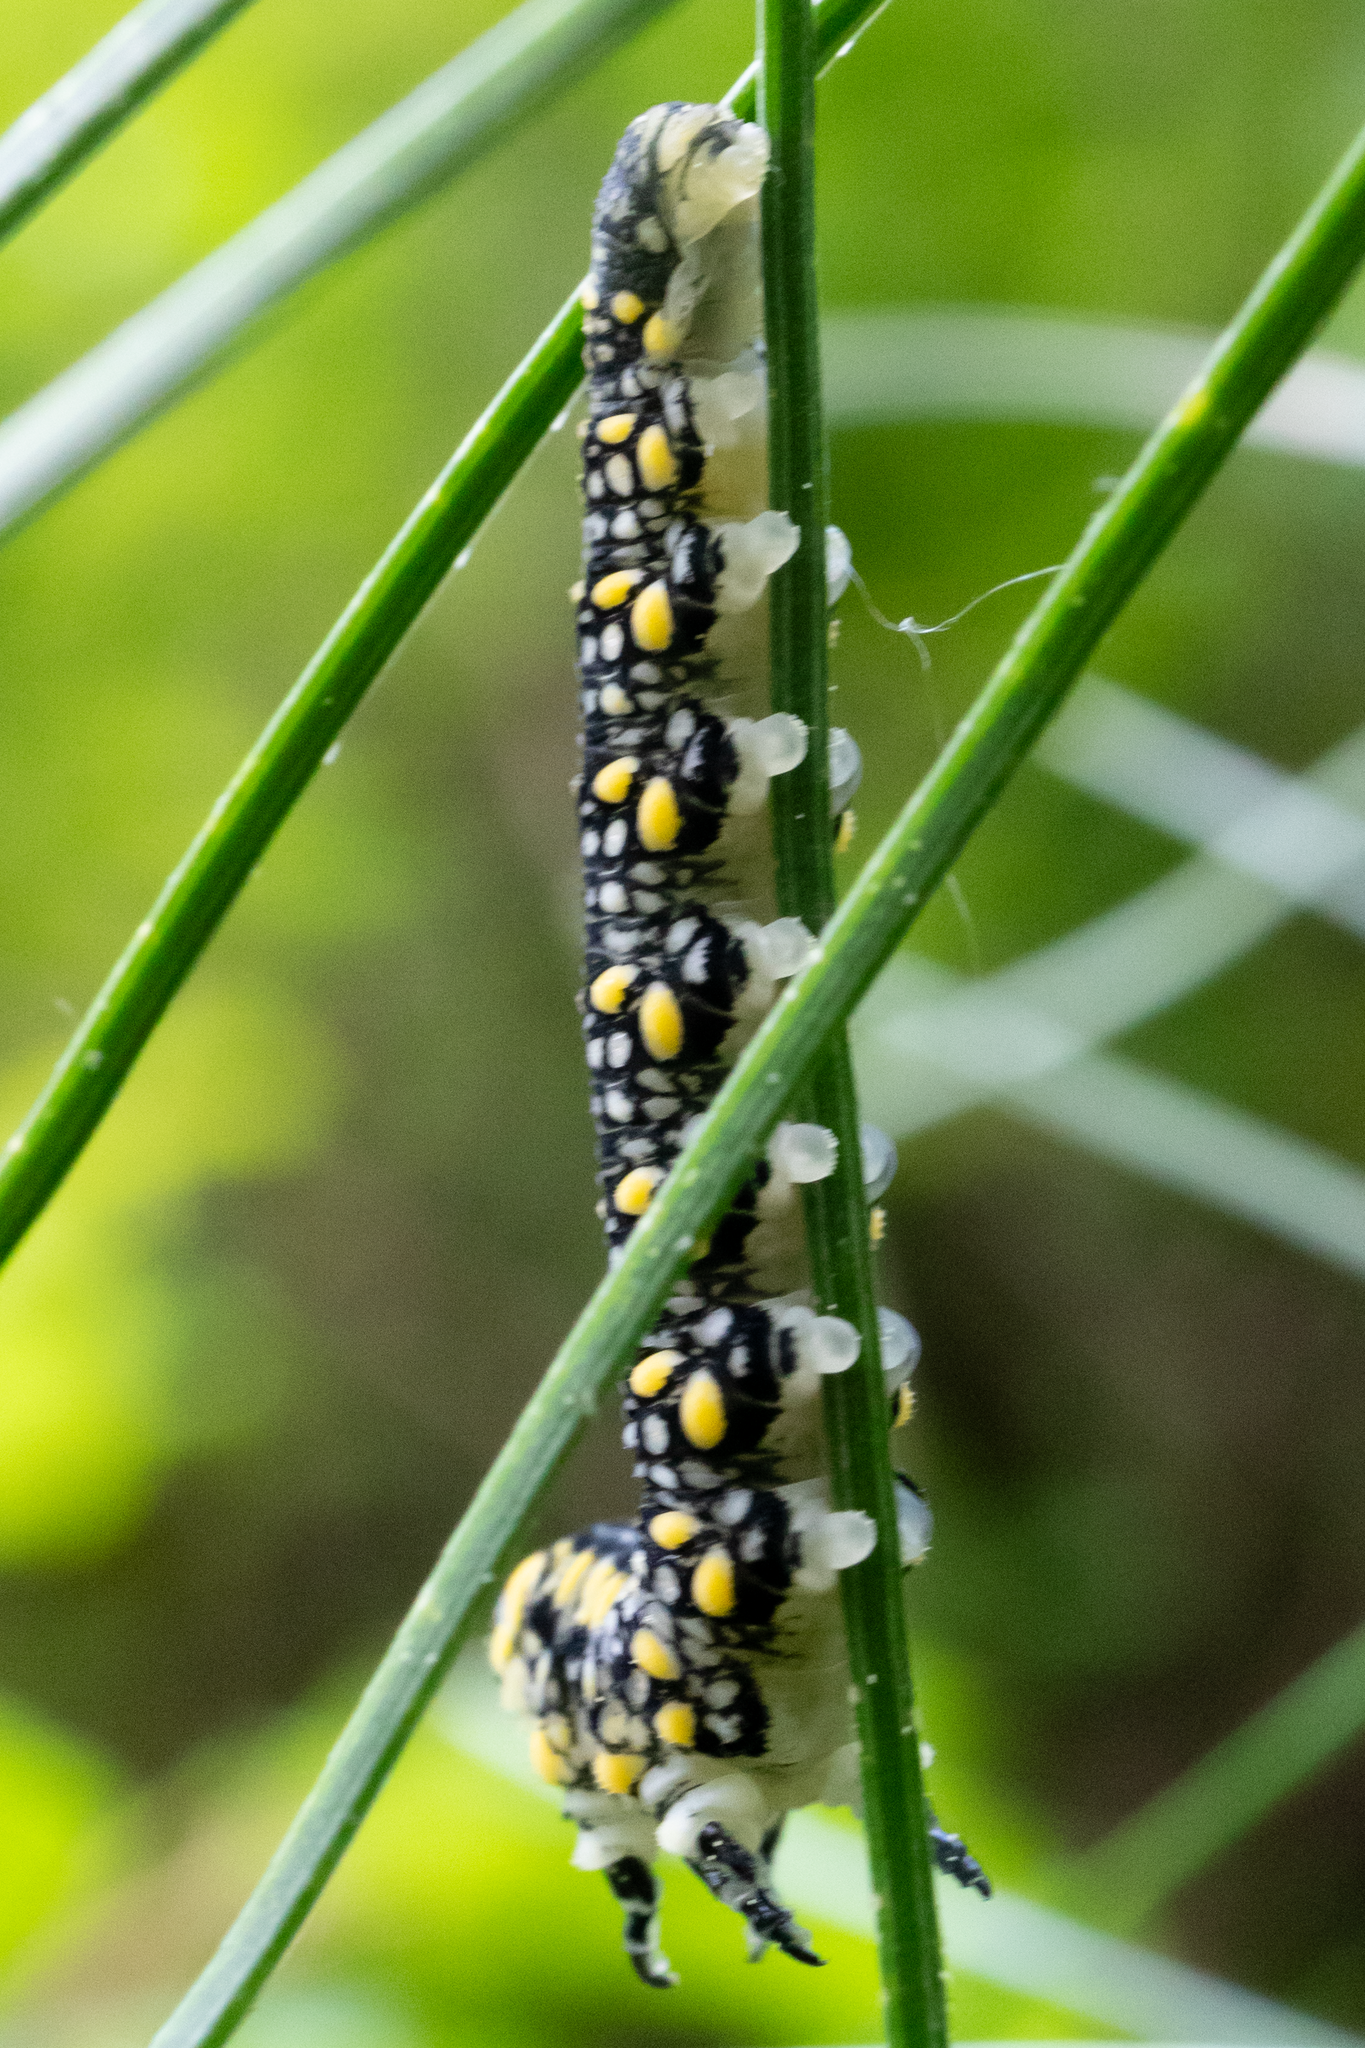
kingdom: Animalia
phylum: Arthropoda
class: Insecta
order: Hymenoptera
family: Diprionidae
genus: Diprion
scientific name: Diprion similis
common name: Pine sawfly
